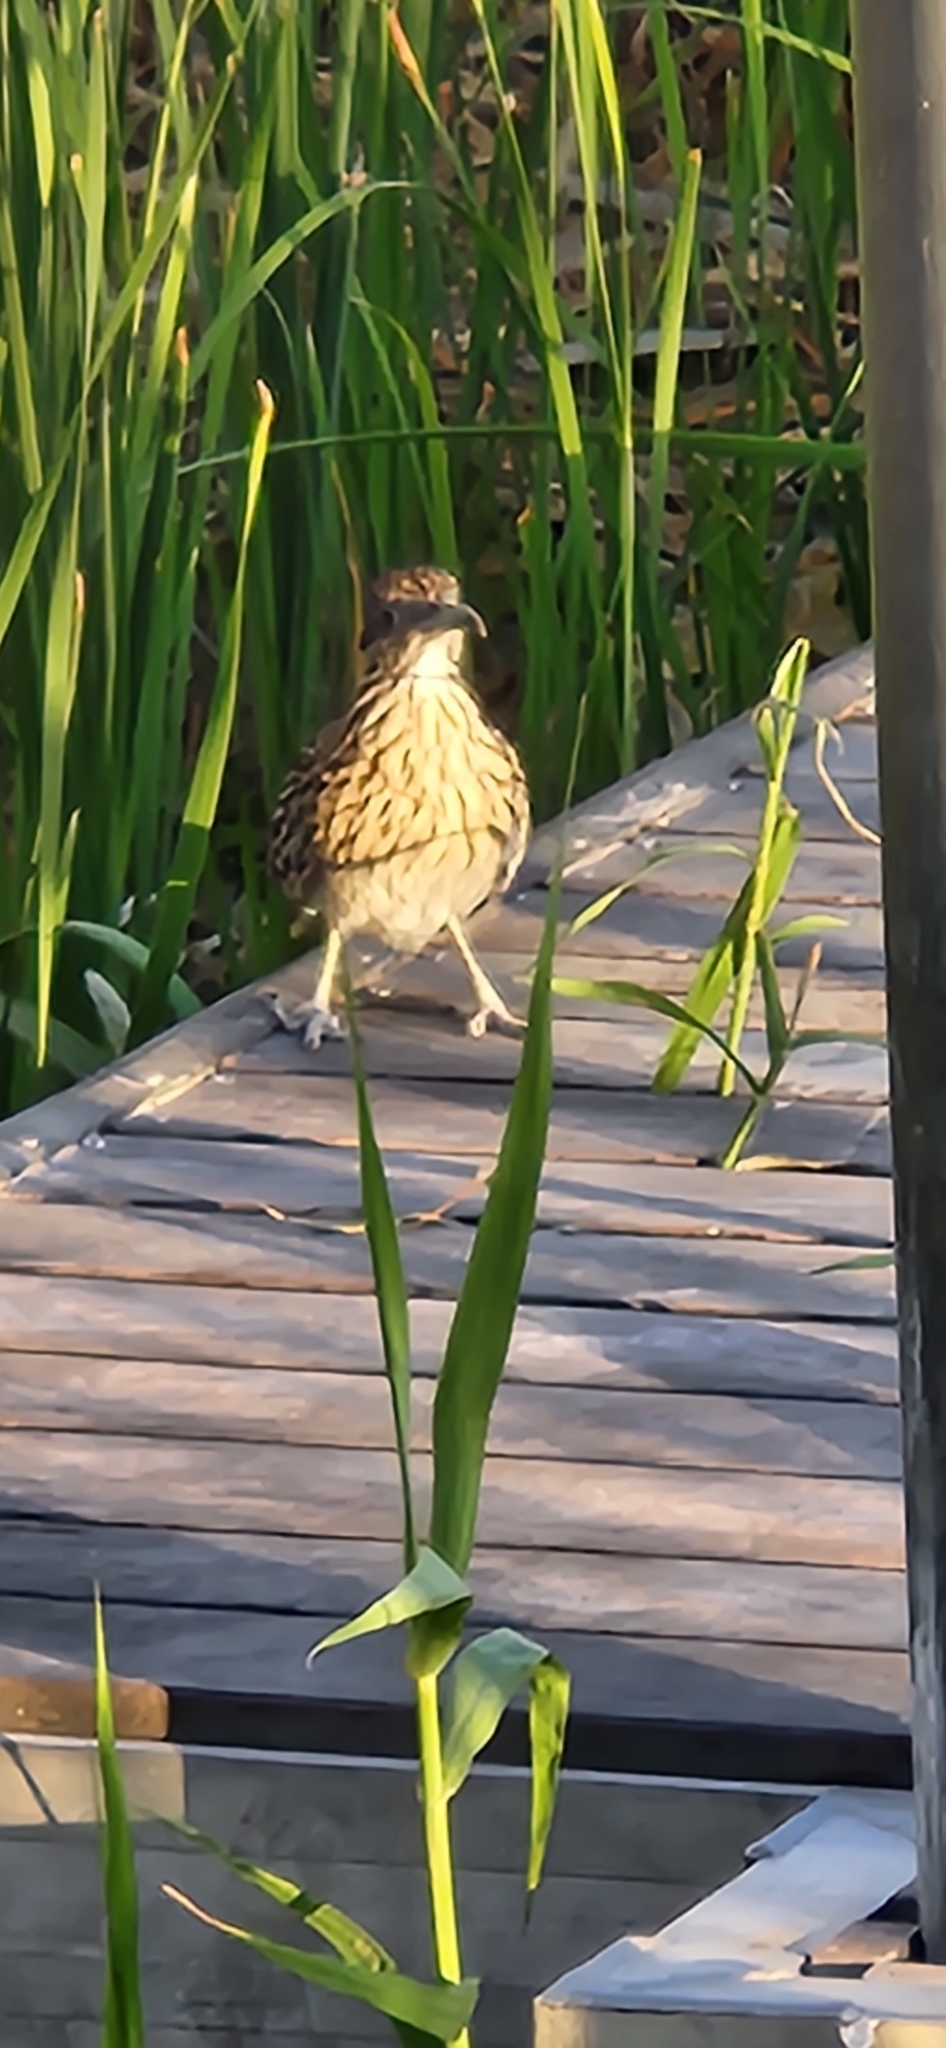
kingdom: Animalia
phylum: Chordata
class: Aves
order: Cuculiformes
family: Cuculidae
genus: Geococcyx
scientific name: Geococcyx californianus
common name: Greater roadrunner
